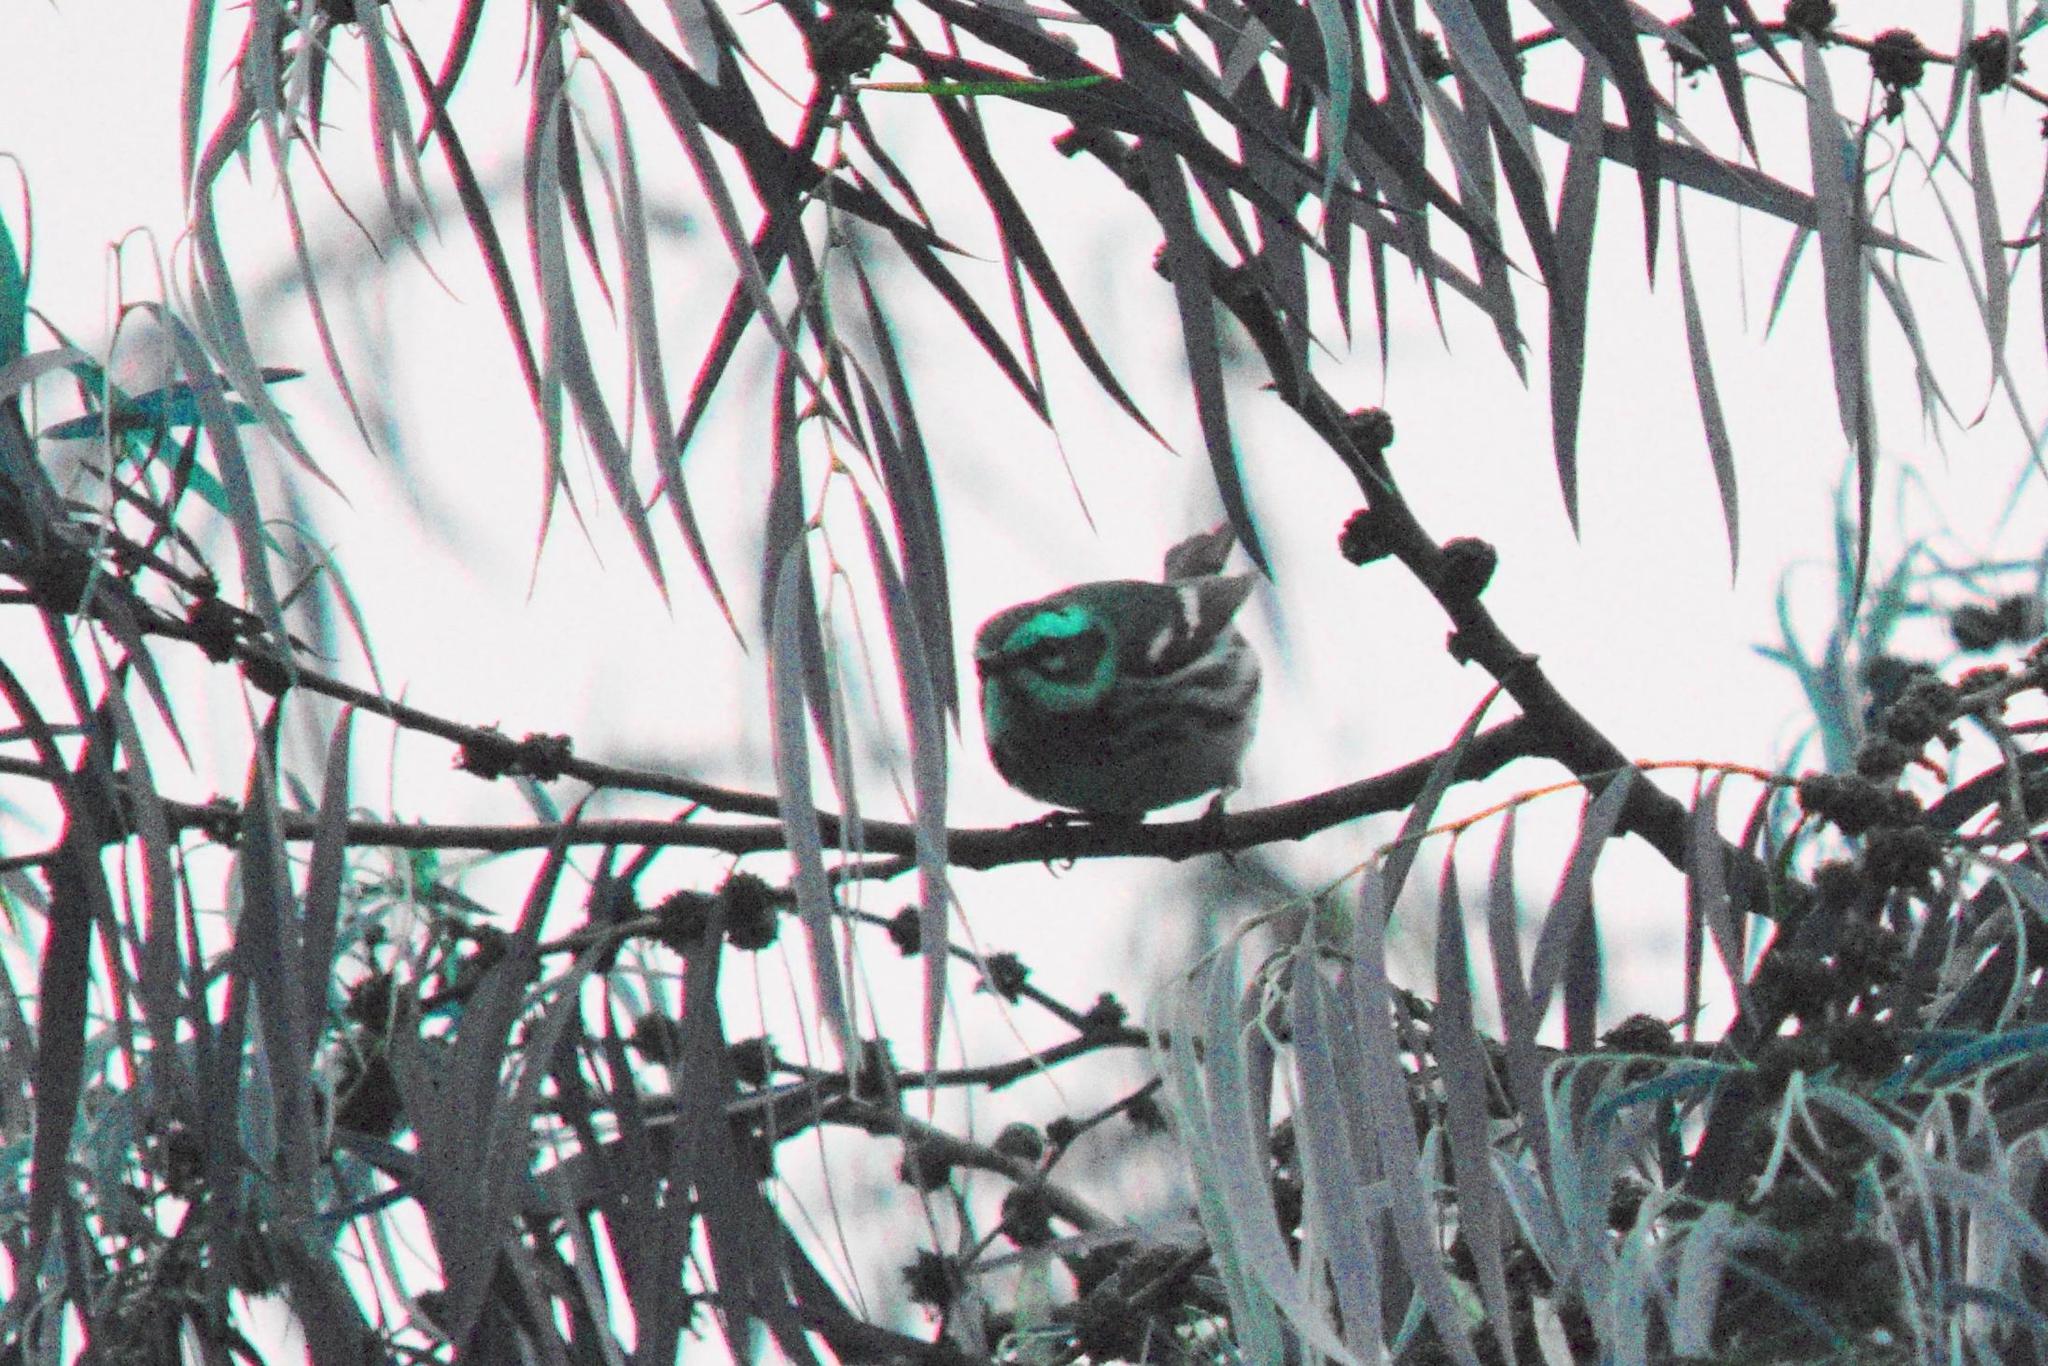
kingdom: Animalia
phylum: Chordata
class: Aves
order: Passeriformes
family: Parulidae
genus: Setophaga
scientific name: Setophaga townsendi
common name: Townsend's warbler
